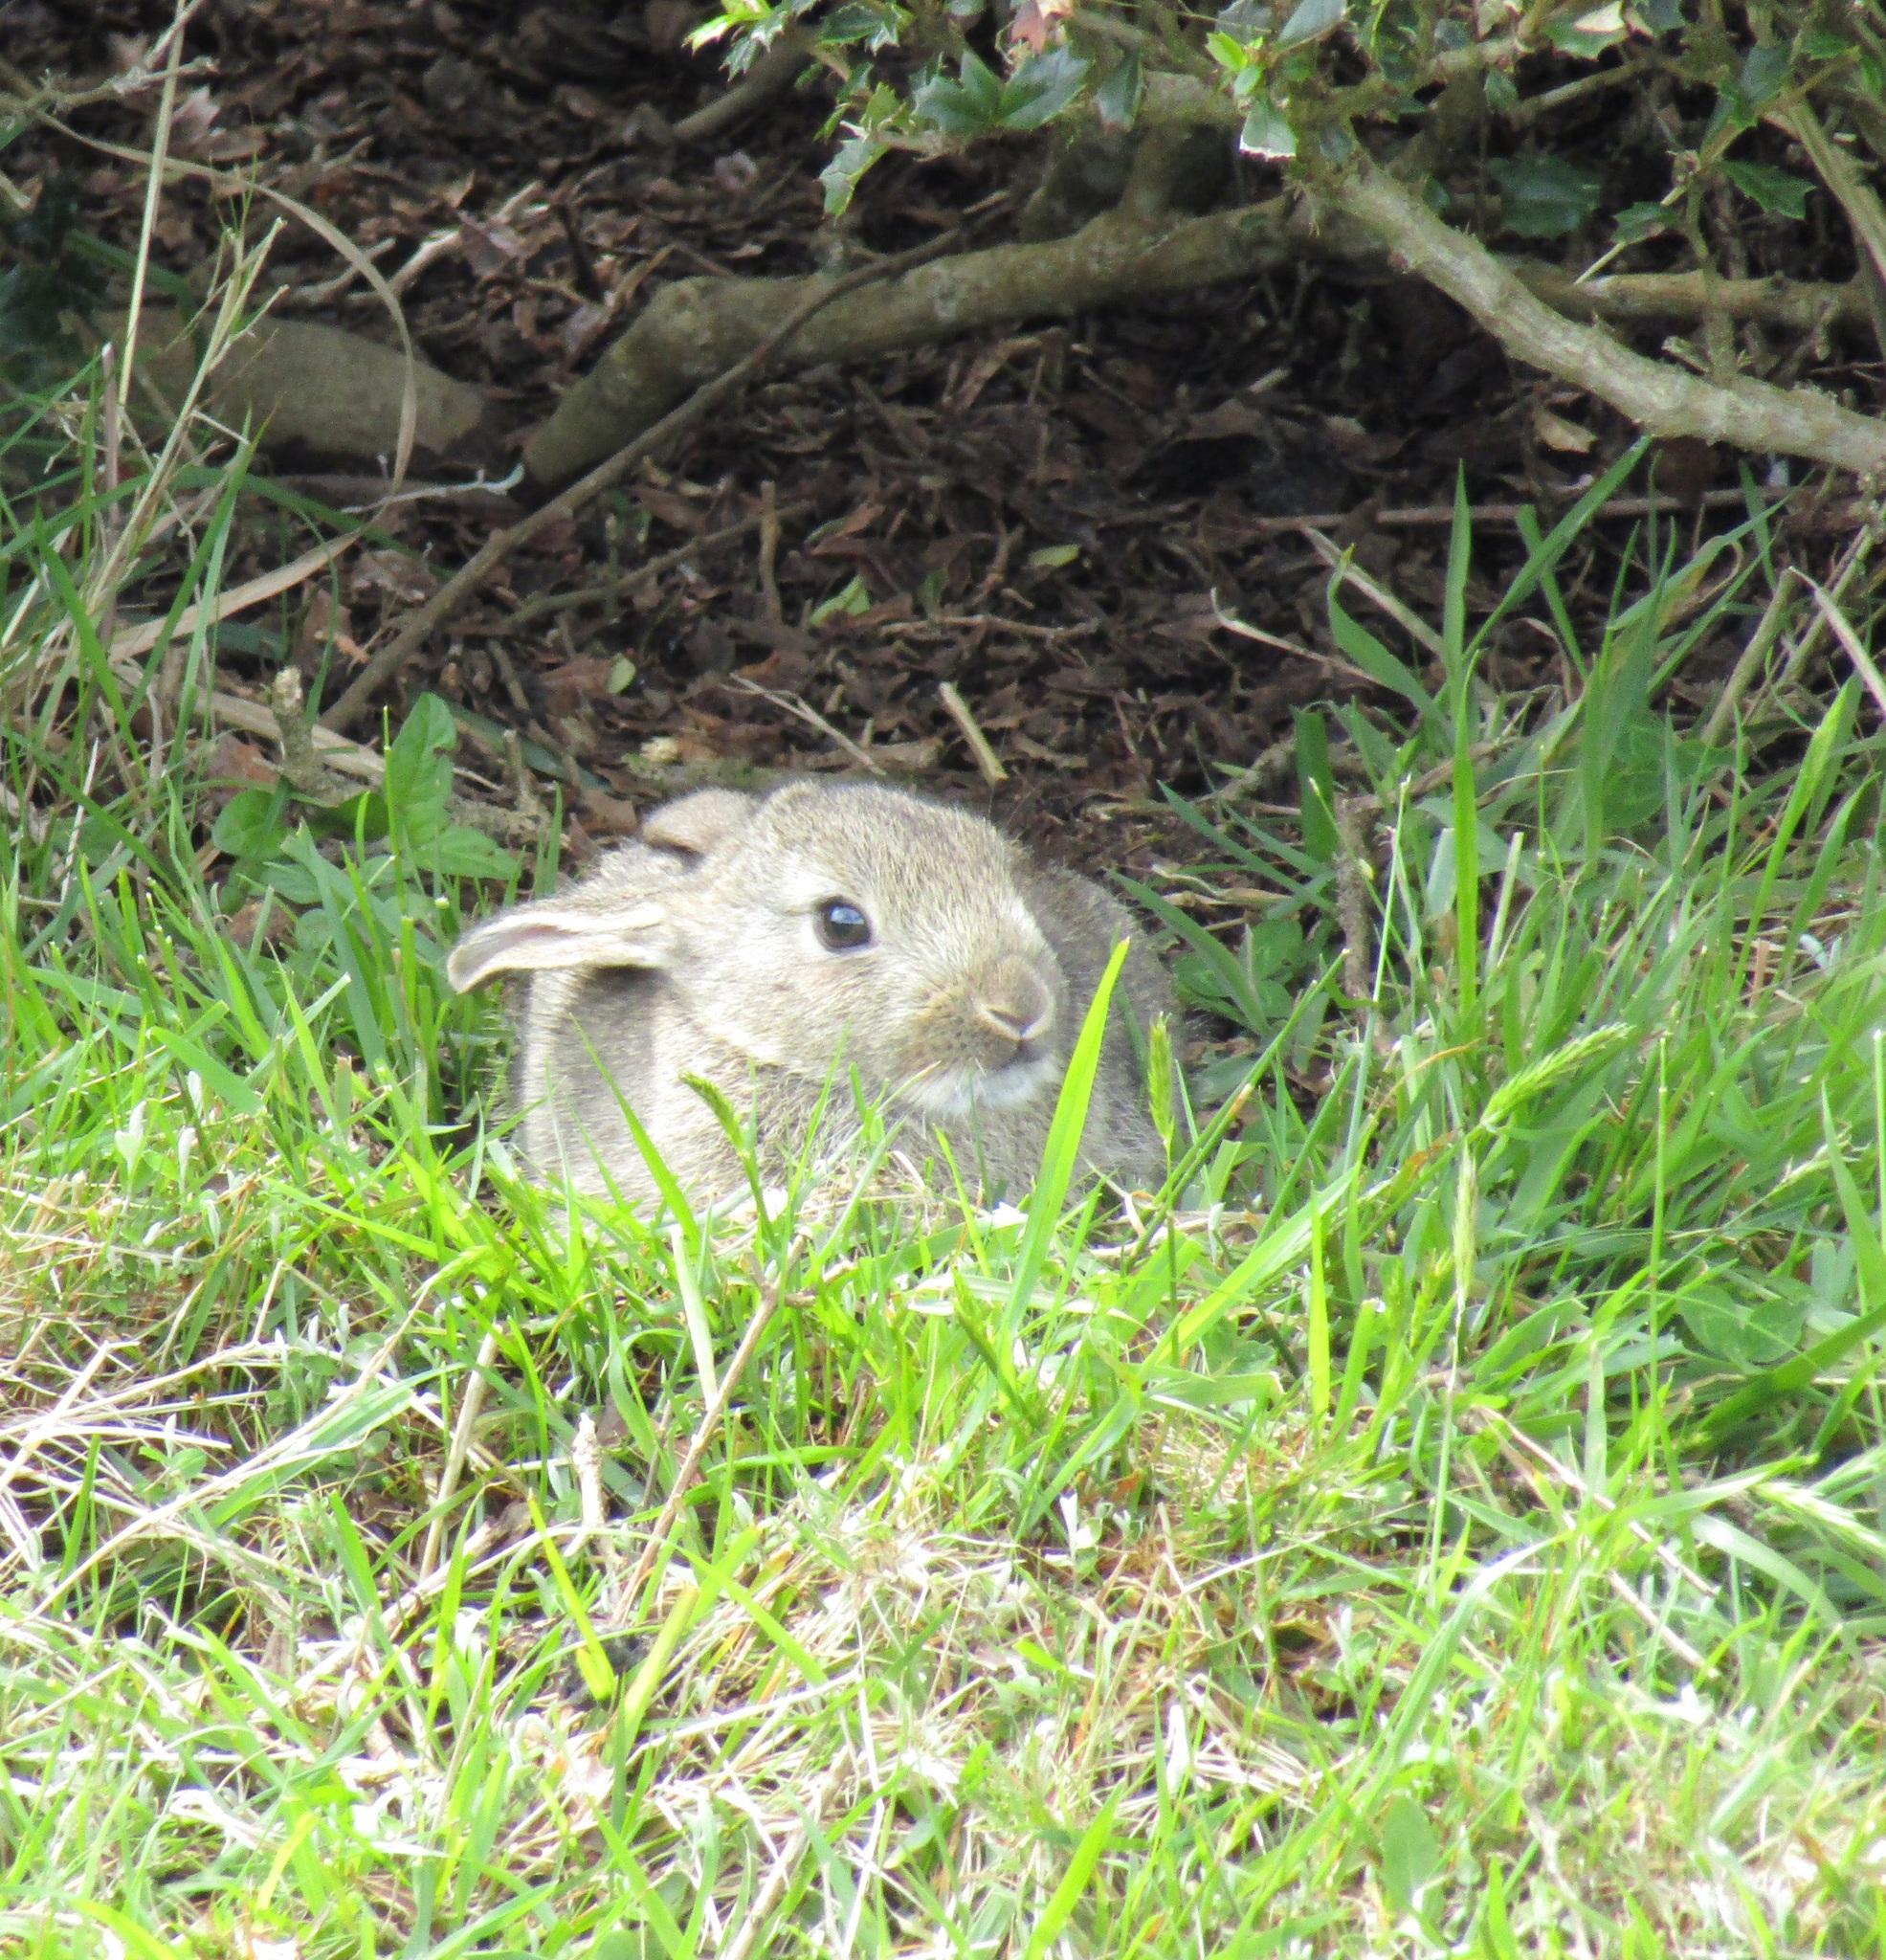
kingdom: Animalia
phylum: Chordata
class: Mammalia
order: Lagomorpha
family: Leporidae
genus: Oryctolagus
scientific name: Oryctolagus cuniculus
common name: European rabbit
